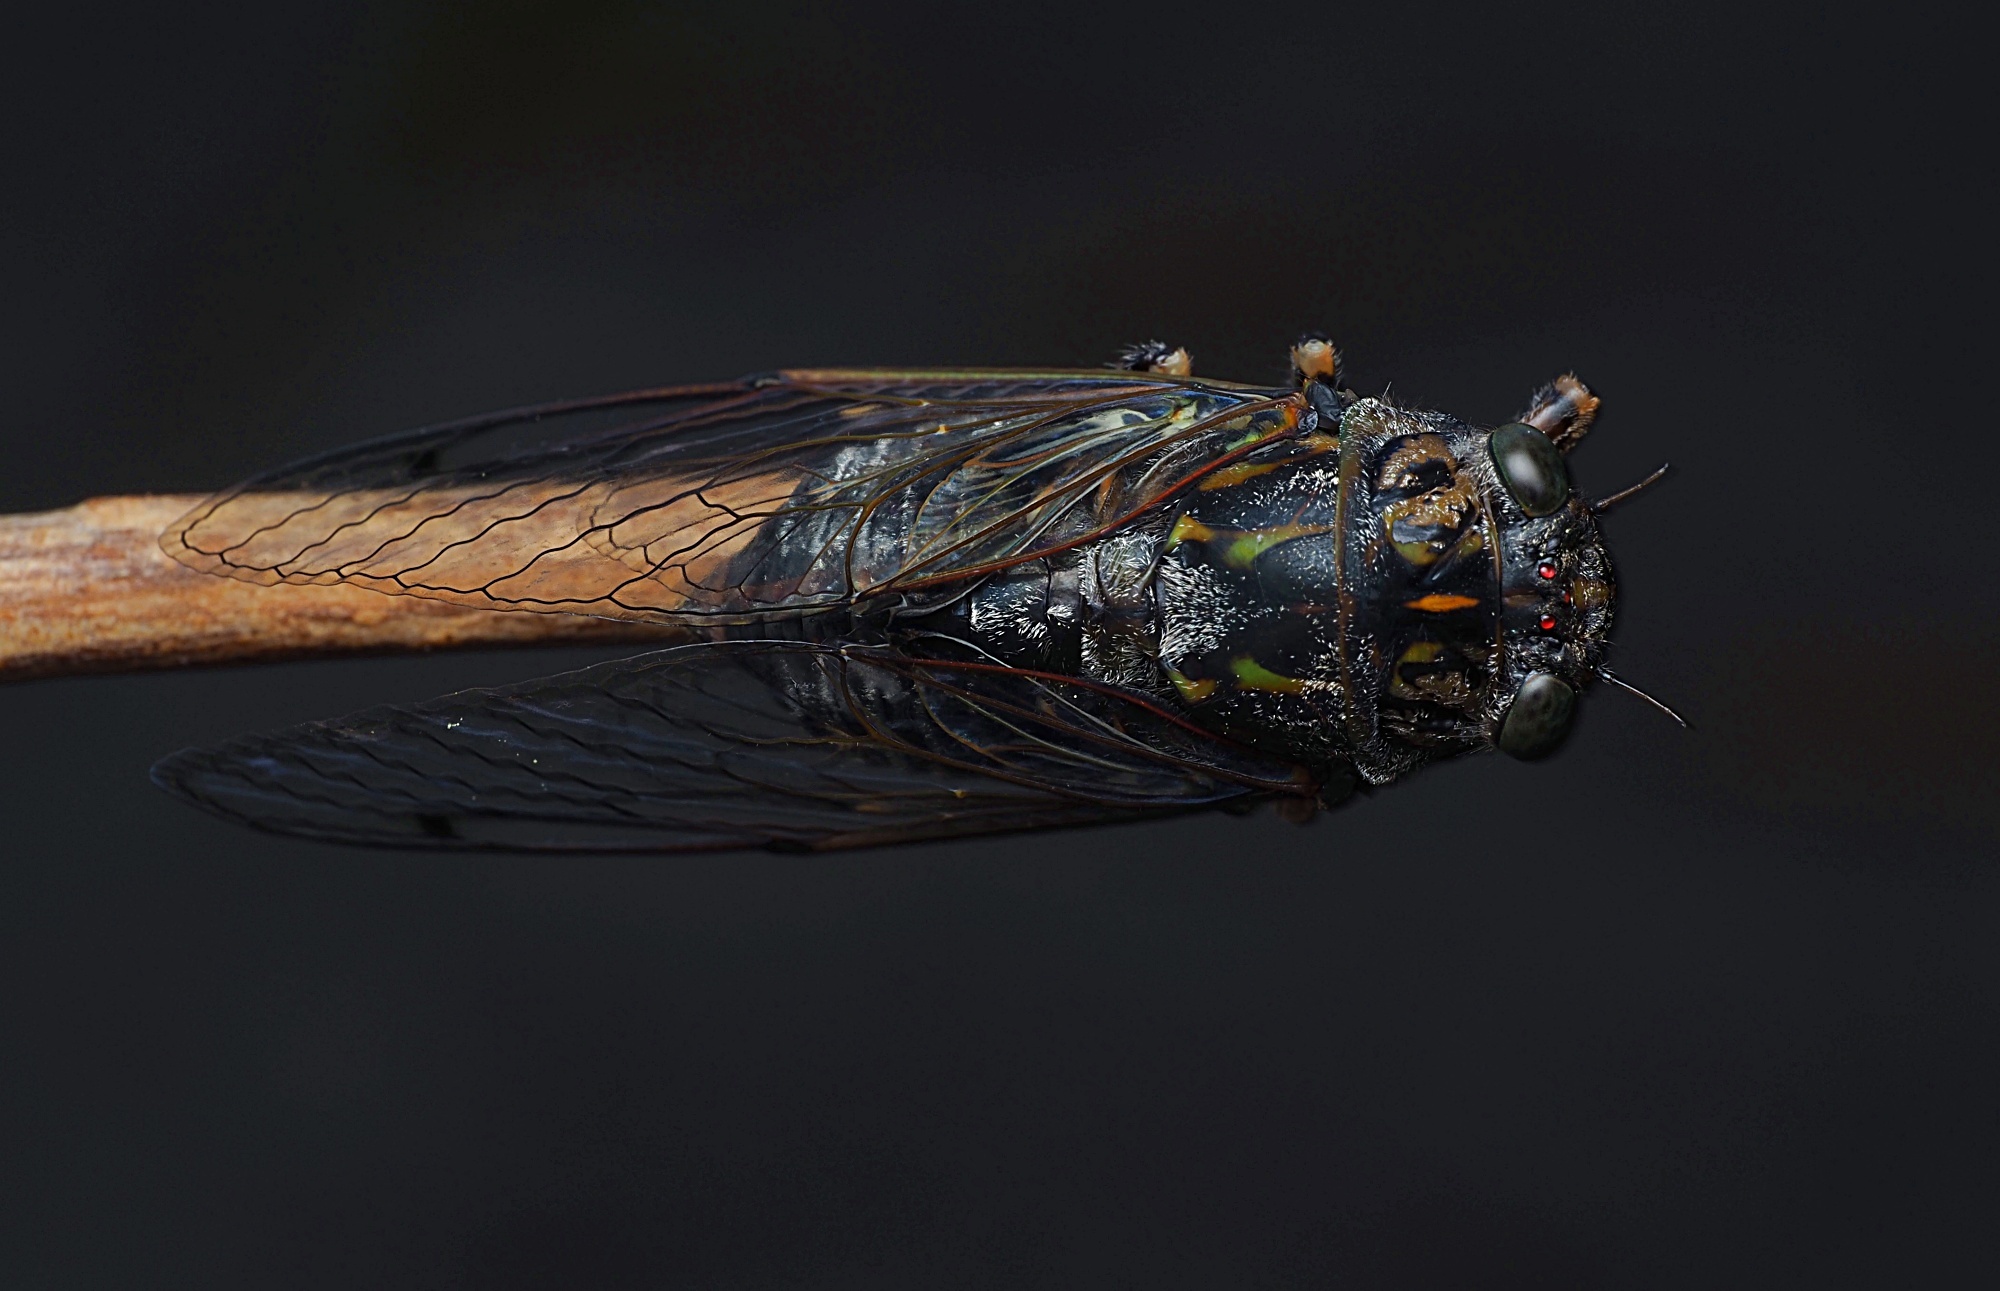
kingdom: Animalia
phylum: Arthropoda
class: Insecta
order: Hemiptera
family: Cicadidae
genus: Amphipsalta
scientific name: Amphipsalta cingulata
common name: Clapping cicada
